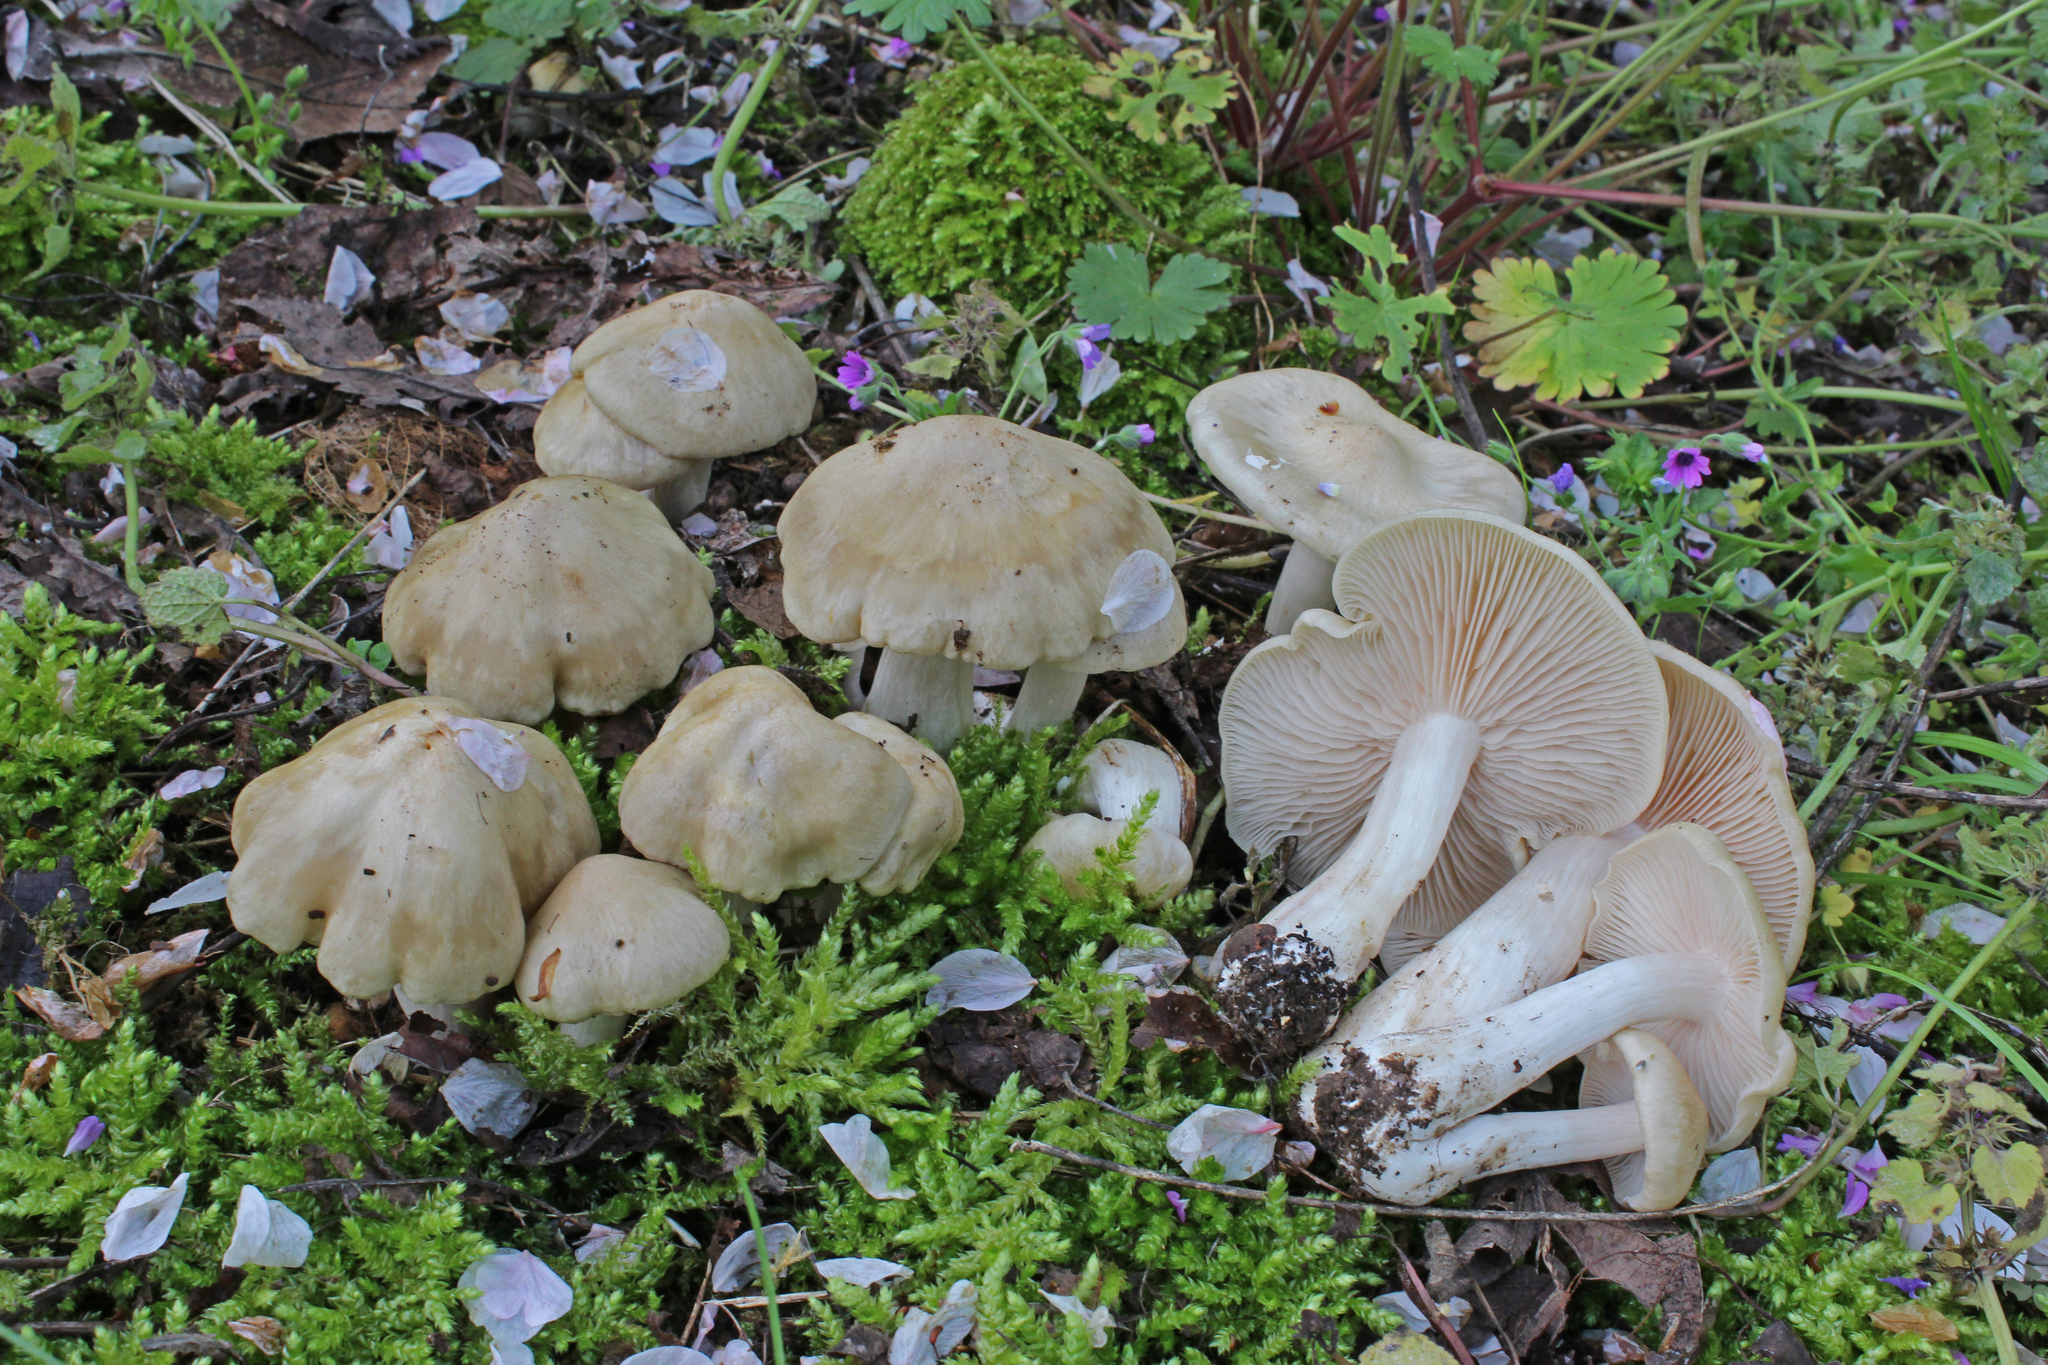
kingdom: Fungi
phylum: Basidiomycota
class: Agaricomycetes
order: Agaricales
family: Entolomataceae
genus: Entoloma
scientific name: Entoloma sepium
